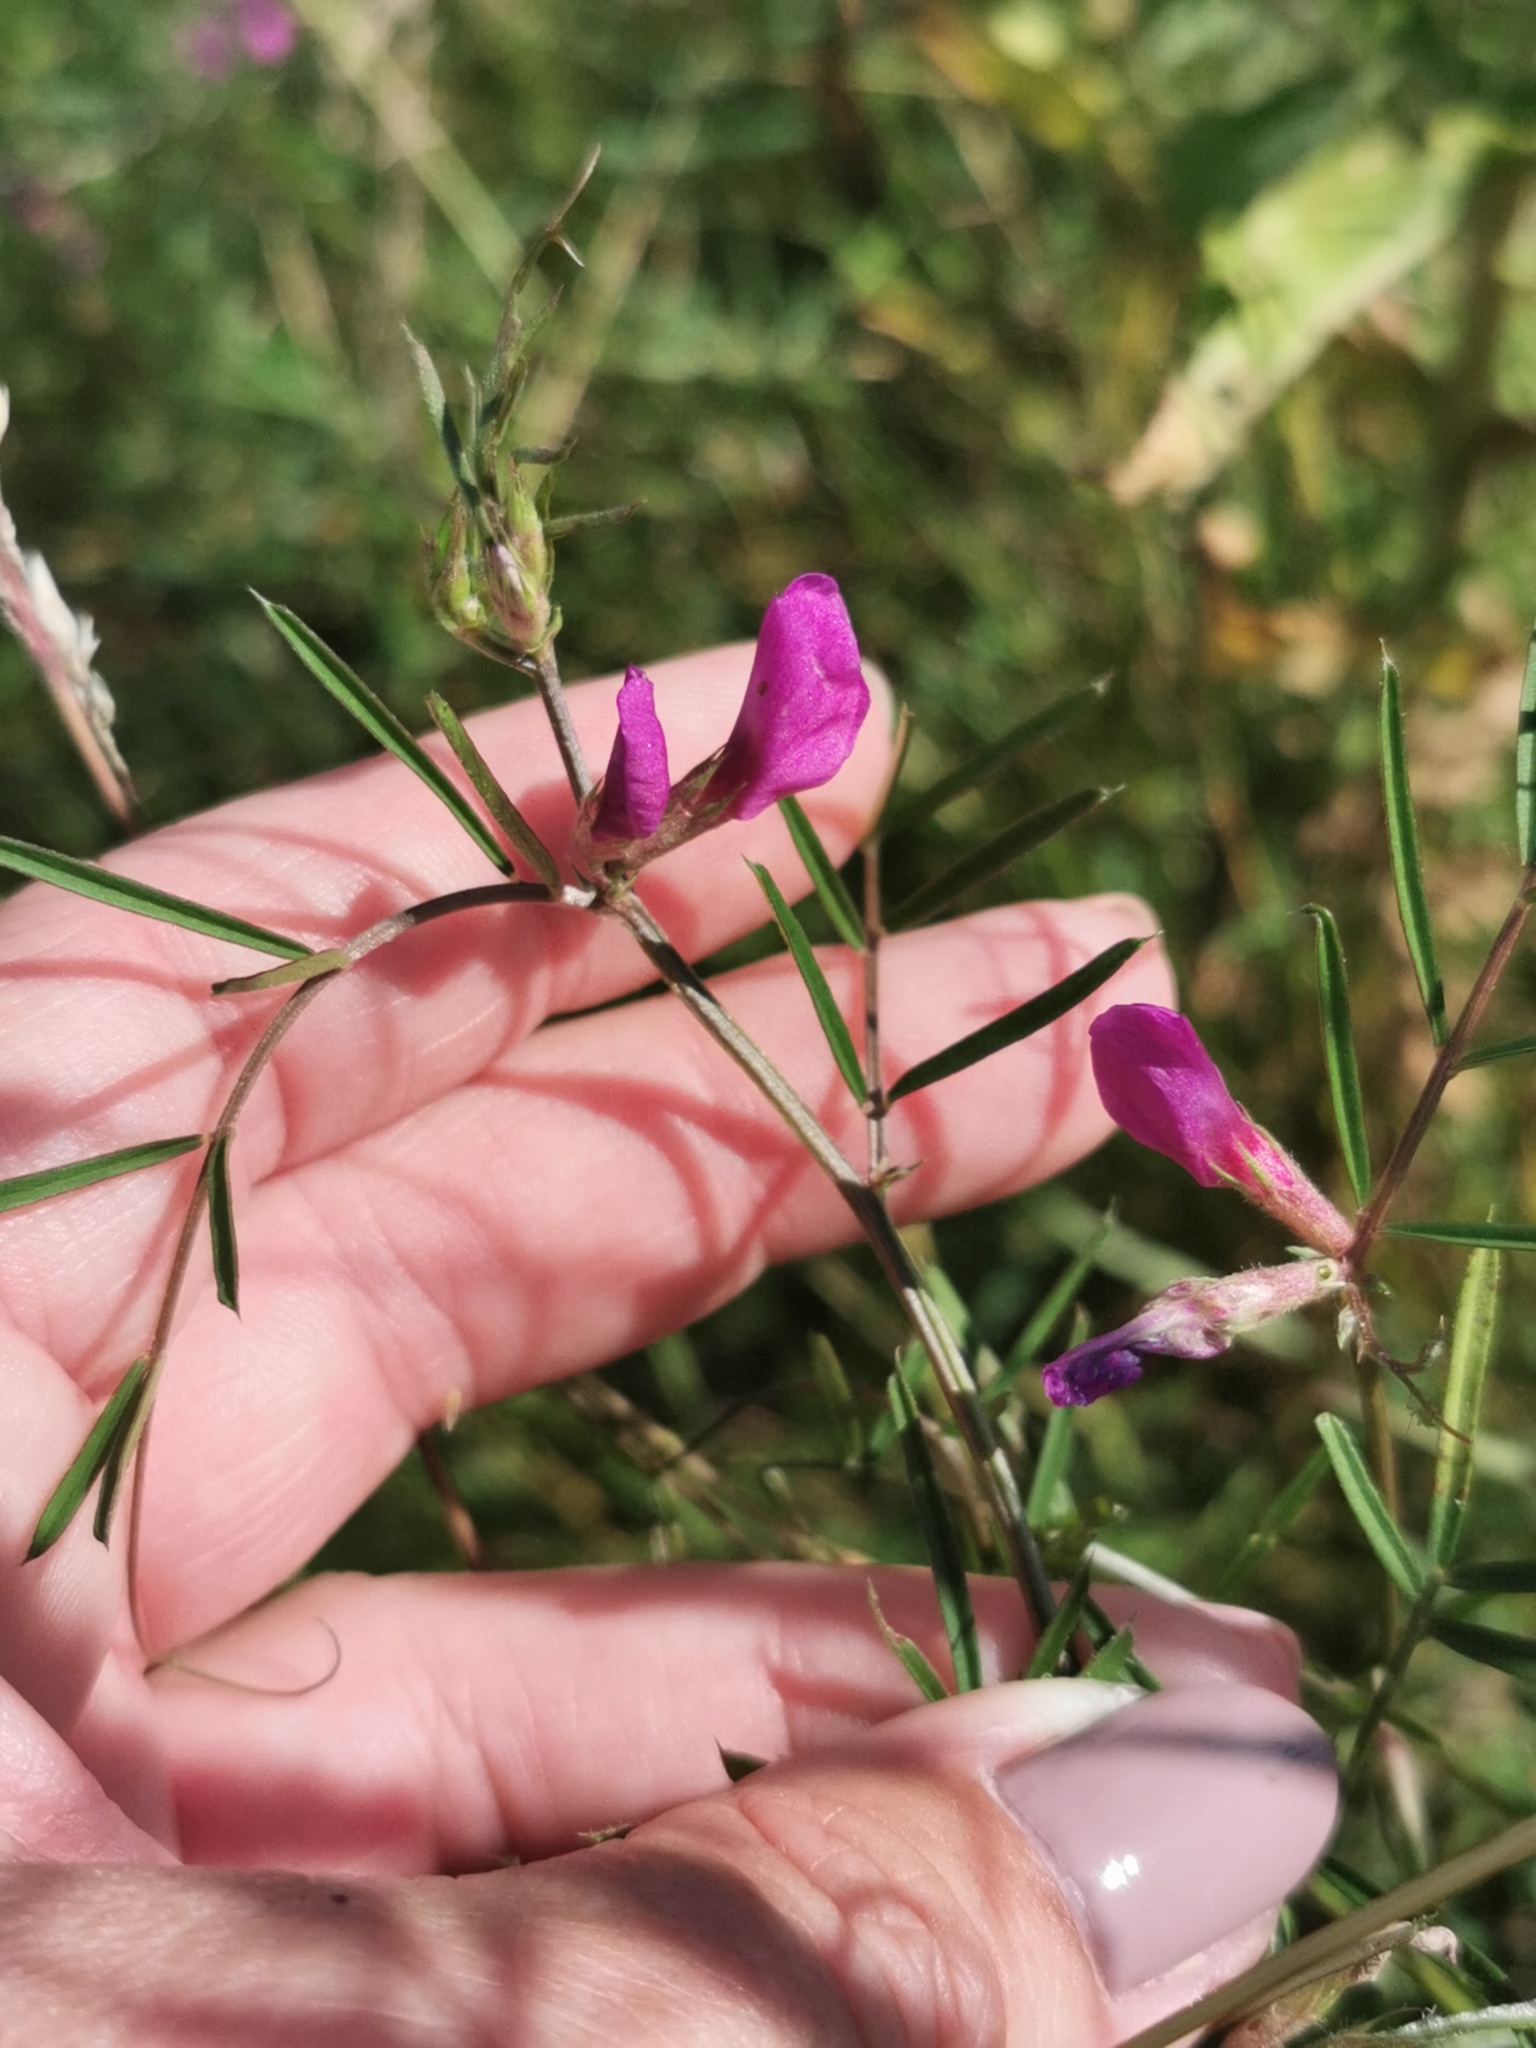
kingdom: Plantae
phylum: Tracheophyta
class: Magnoliopsida
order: Fabales
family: Fabaceae
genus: Vicia
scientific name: Vicia sativa
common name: Garden vetch
